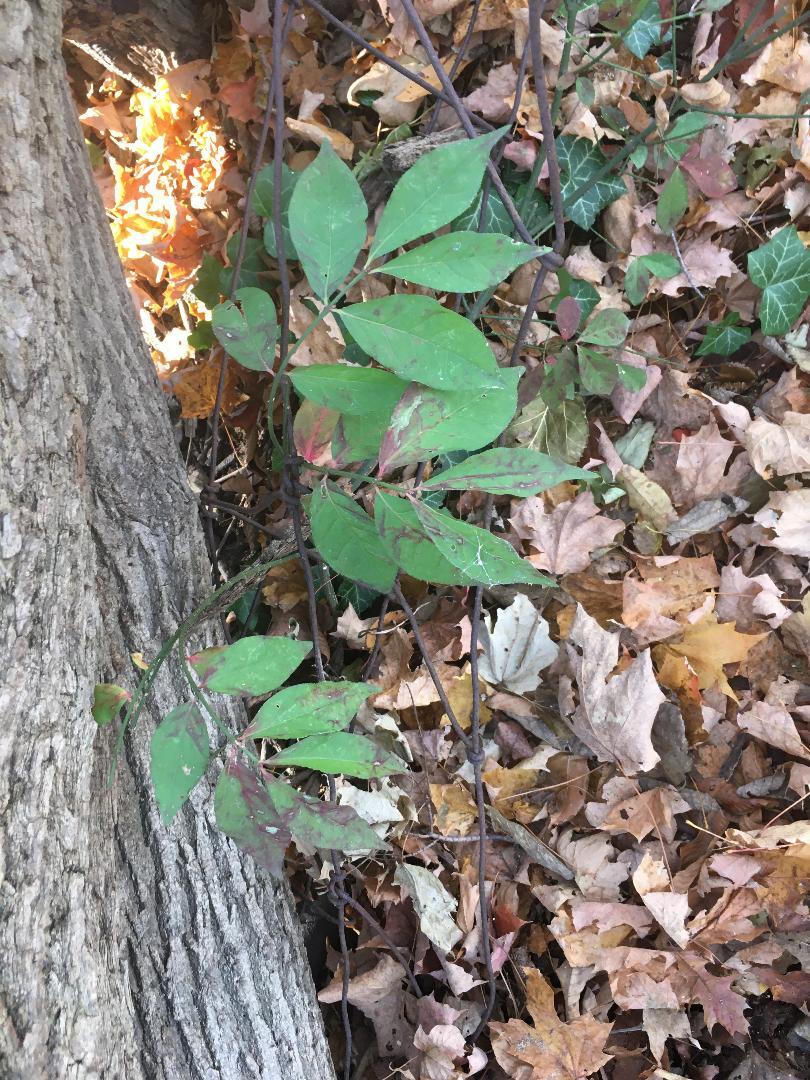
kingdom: Plantae
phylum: Tracheophyta
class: Magnoliopsida
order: Celastrales
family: Celastraceae
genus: Euonymus
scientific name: Euonymus alatus
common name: Winged euonymus
